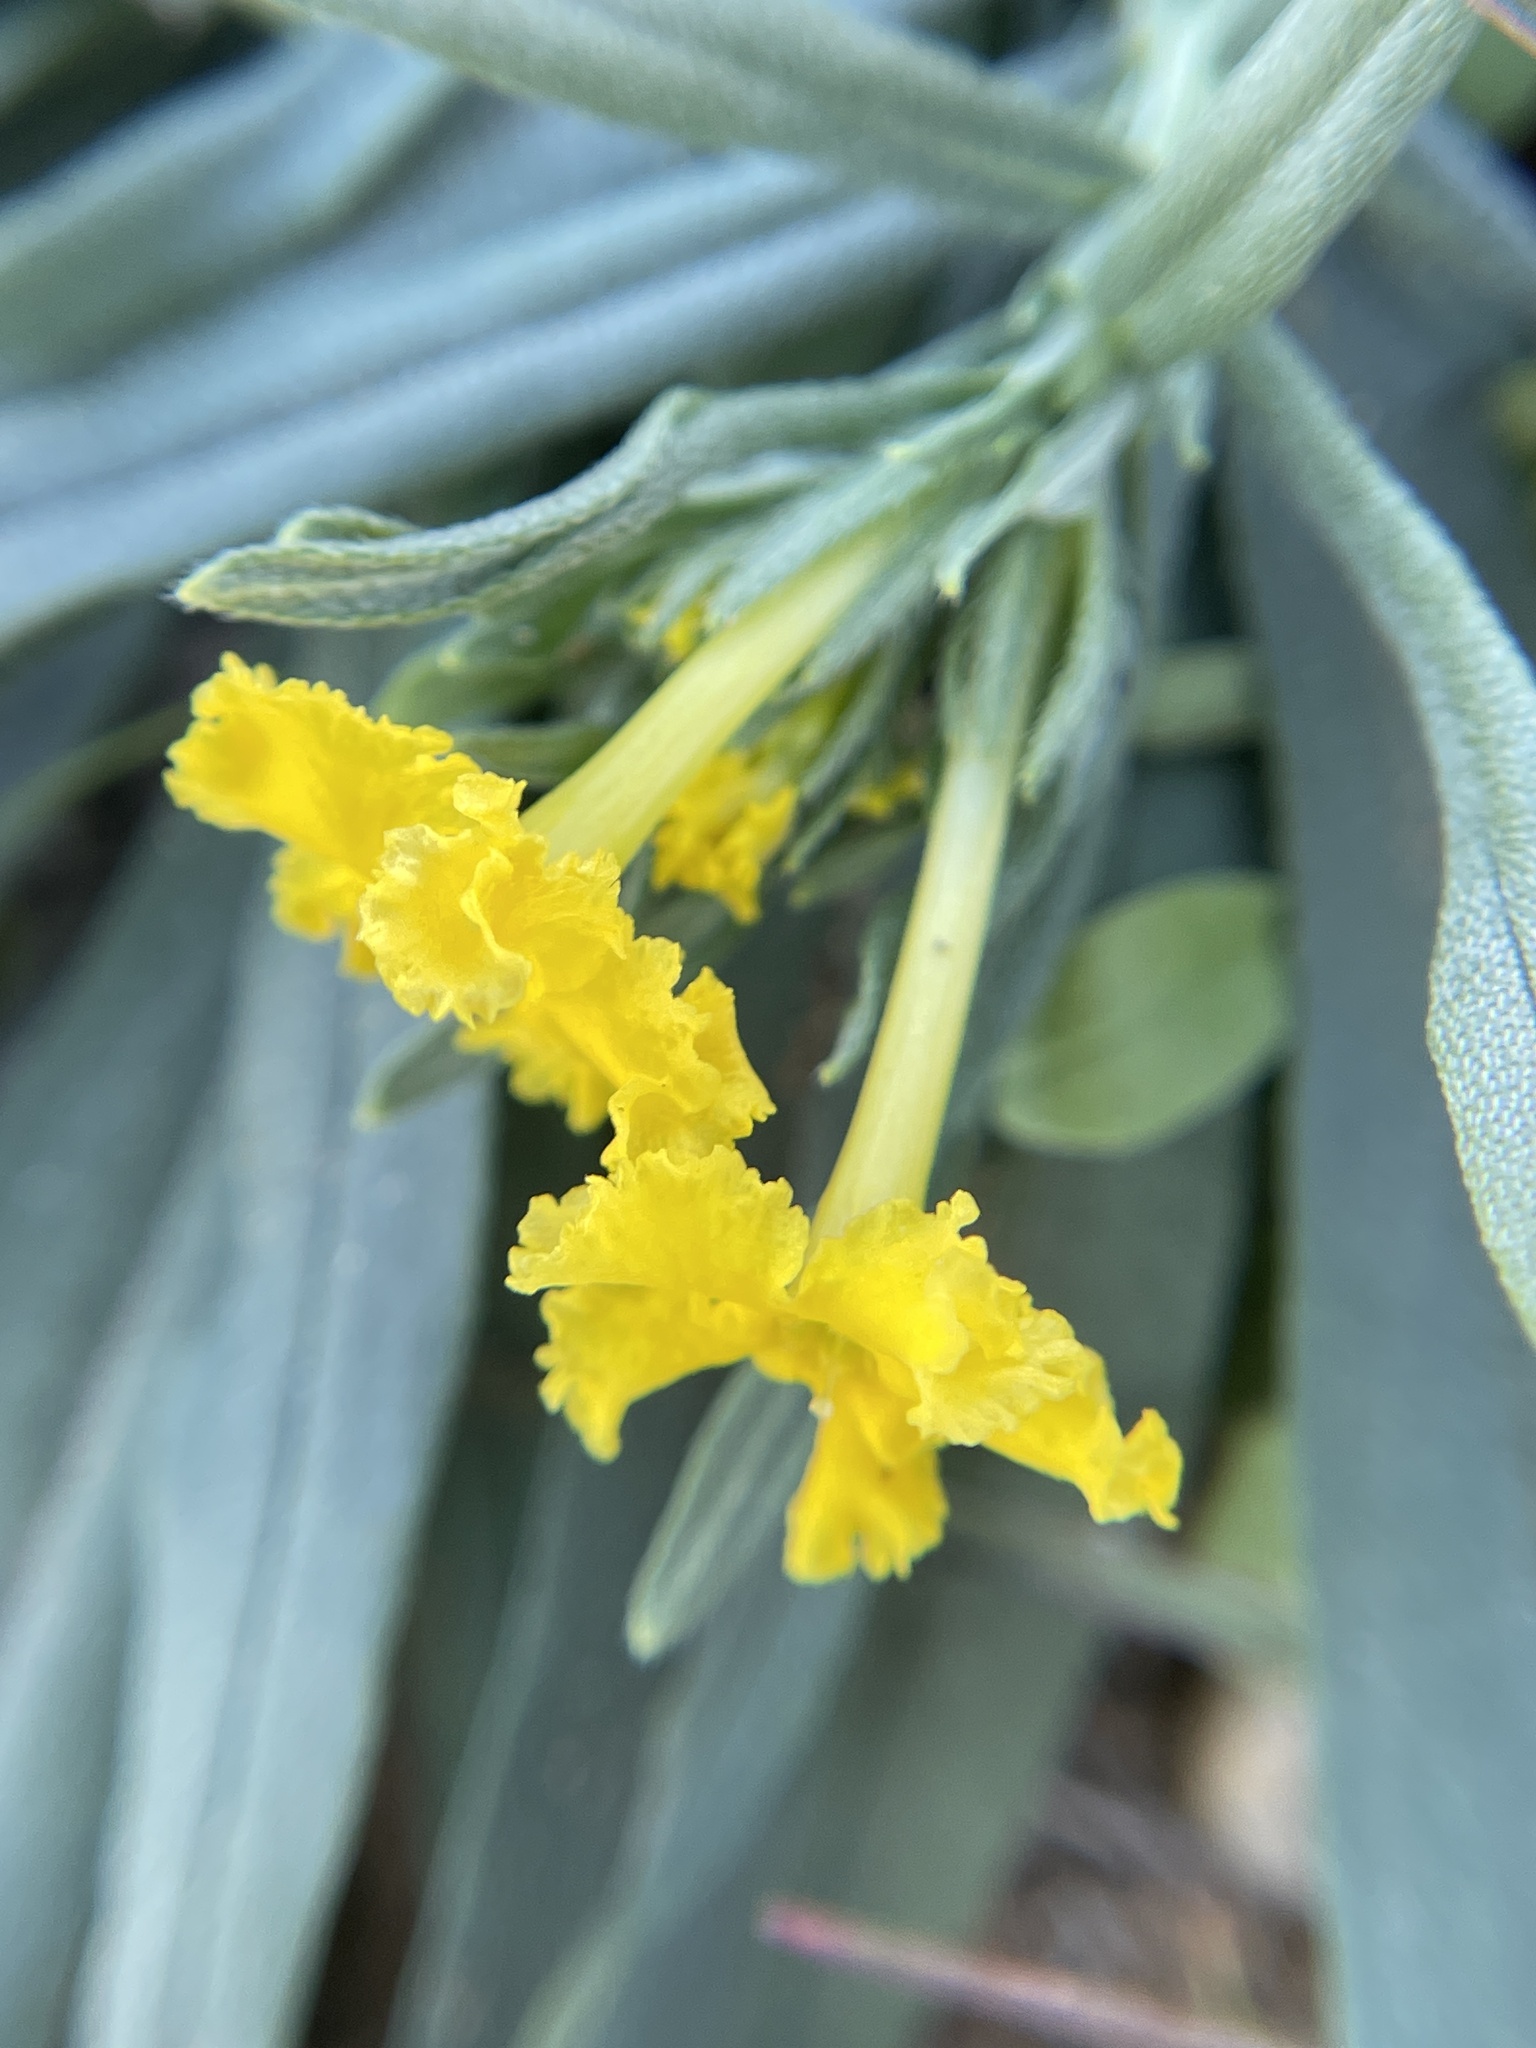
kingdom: Plantae
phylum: Tracheophyta
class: Magnoliopsida
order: Boraginales
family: Boraginaceae
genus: Lithospermum
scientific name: Lithospermum incisum
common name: Fringed gromwell
